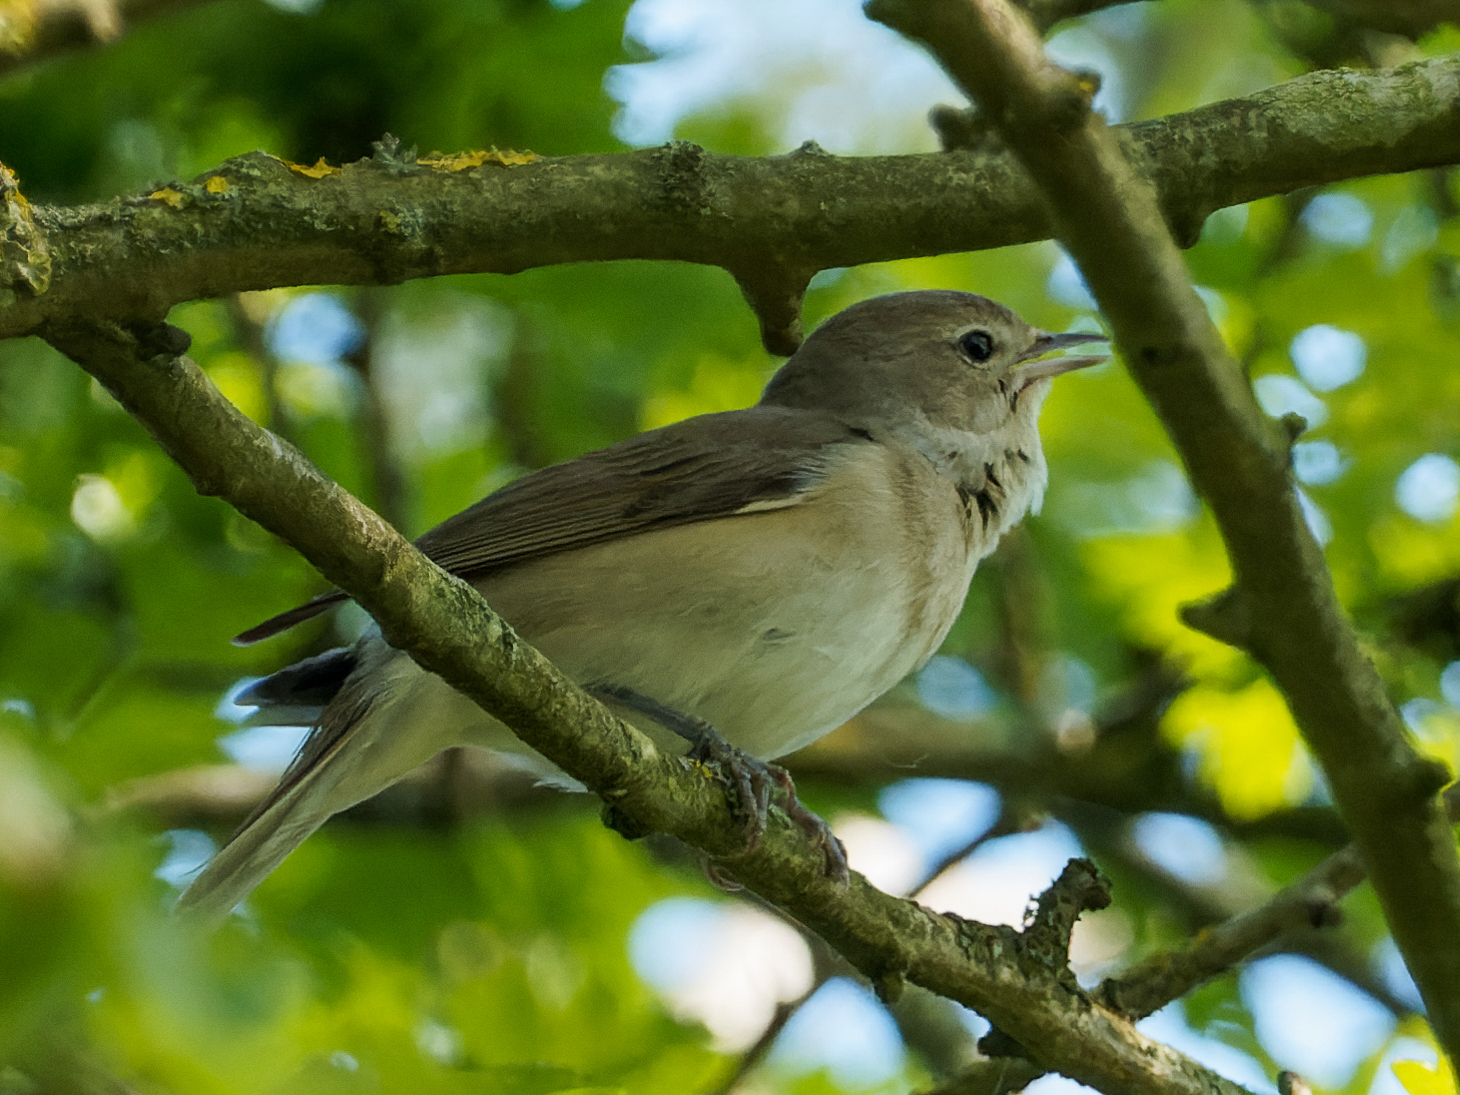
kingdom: Animalia
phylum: Chordata
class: Aves
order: Passeriformes
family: Sylviidae
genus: Sylvia
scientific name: Sylvia borin
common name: Garden warbler
